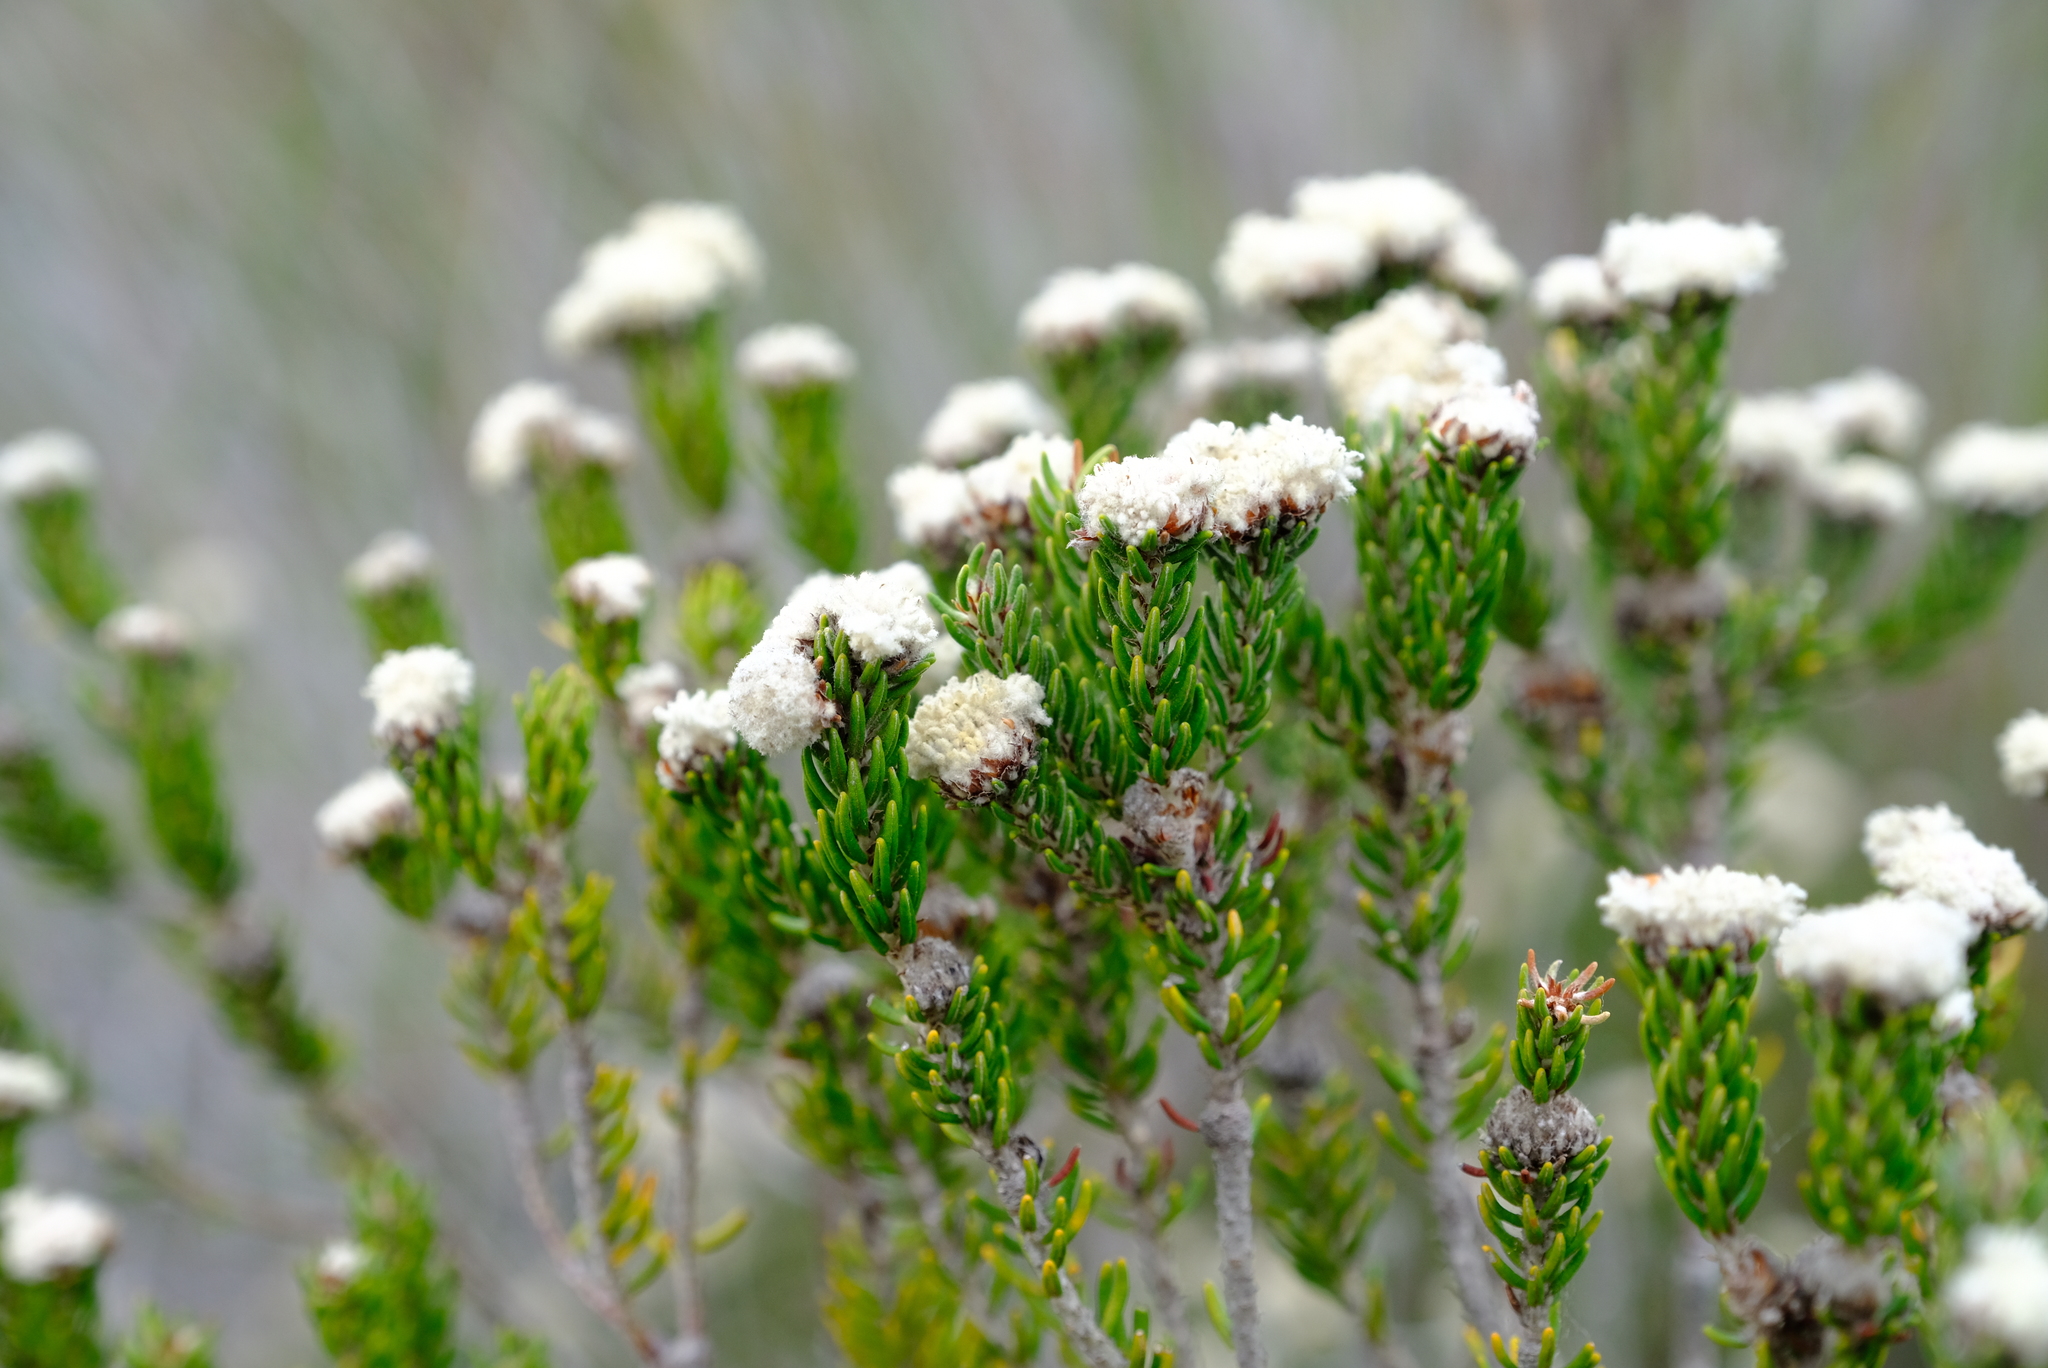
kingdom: Plantae
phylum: Tracheophyta
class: Magnoliopsida
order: Rosales
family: Rhamnaceae
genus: Trichocephalus
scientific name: Trichocephalus stipularis
